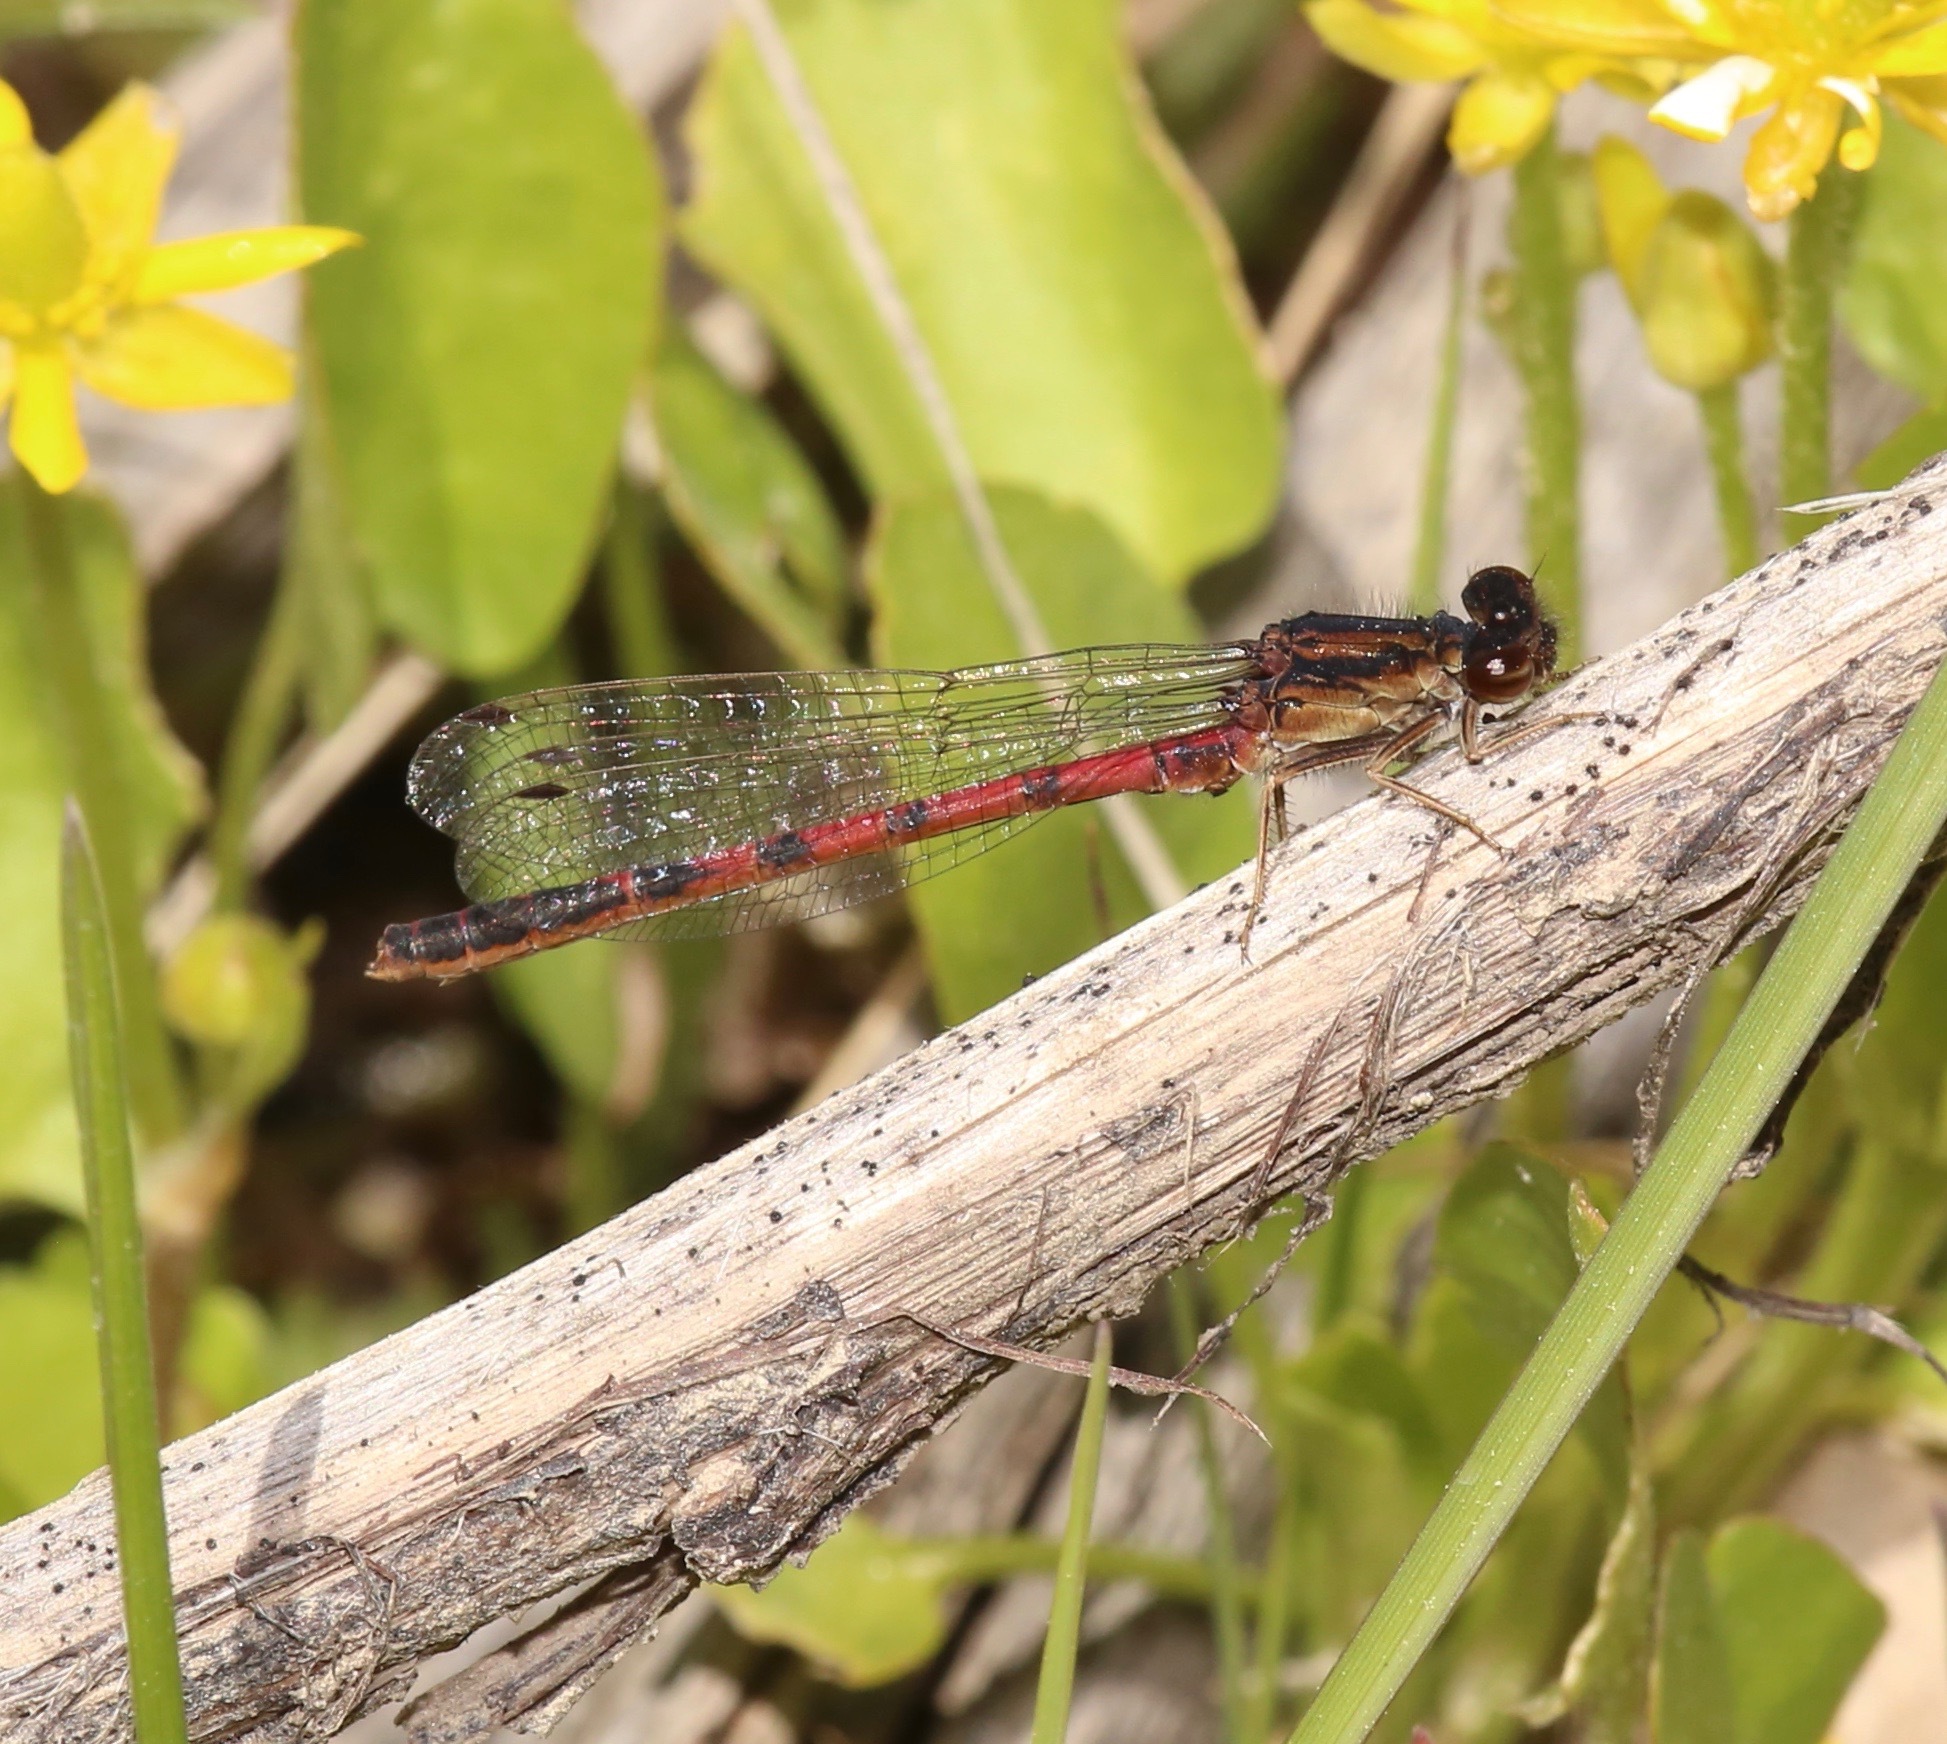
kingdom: Animalia
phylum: Arthropoda
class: Insecta
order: Odonata
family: Coenagrionidae
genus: Amphiagrion
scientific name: Amphiagrion abbreviatum
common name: Western red damsel
